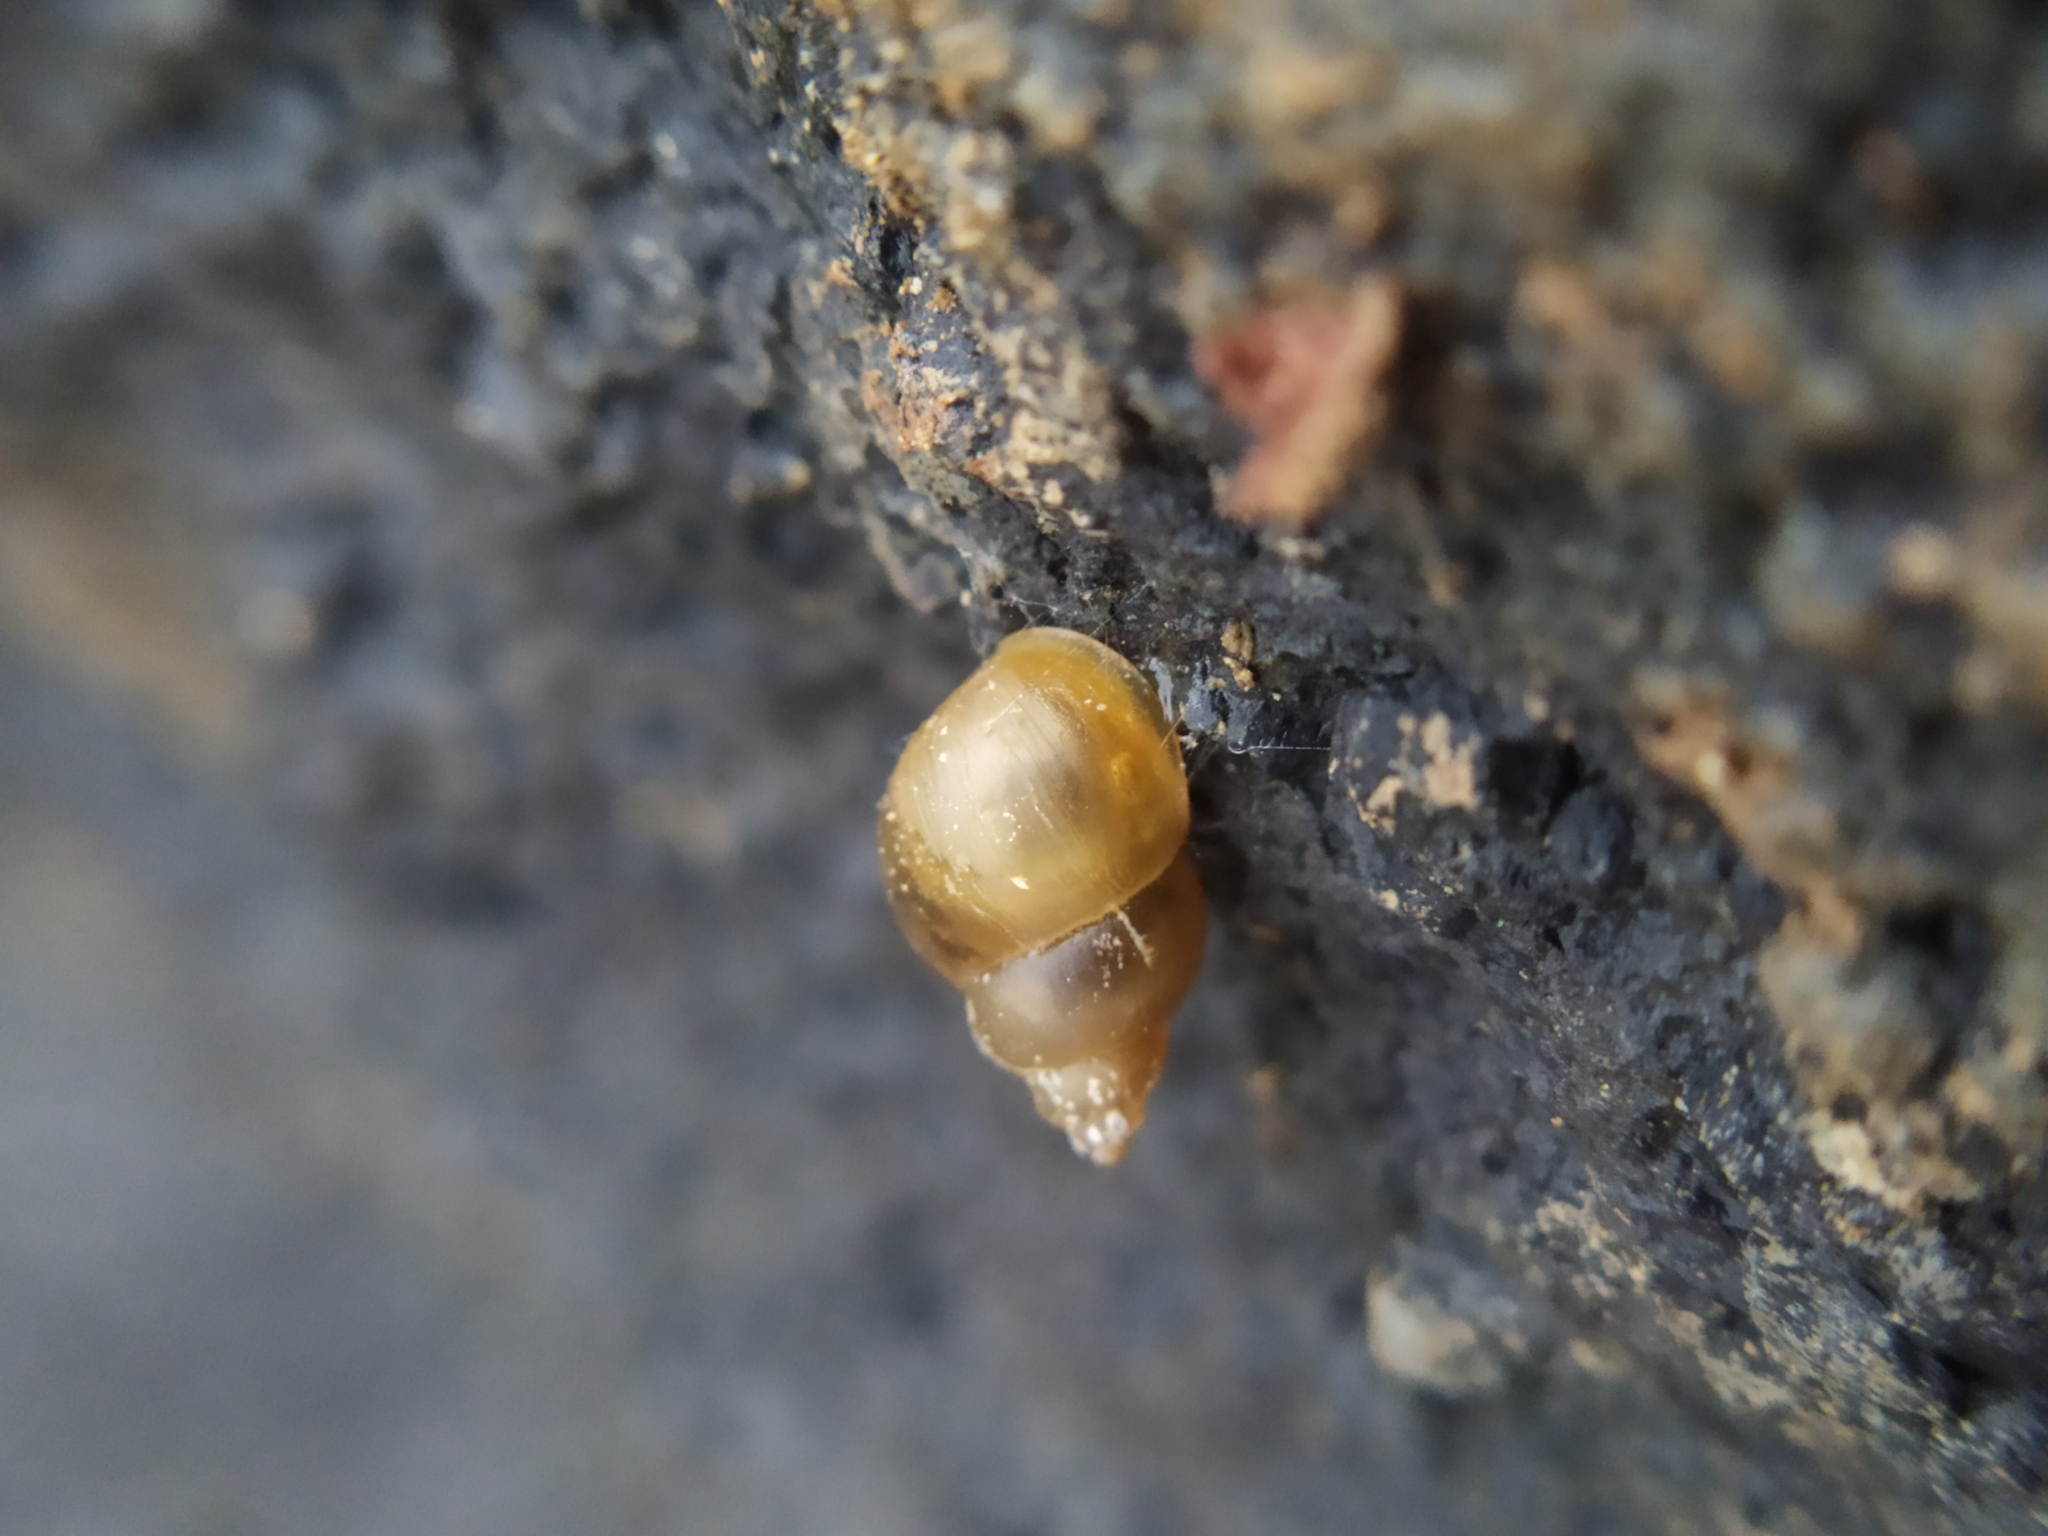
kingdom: Animalia
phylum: Mollusca
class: Gastropoda
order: Littorinimorpha
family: Bithyniidae
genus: Bithynia
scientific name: Bithynia tentaculata
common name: Common bithynia
